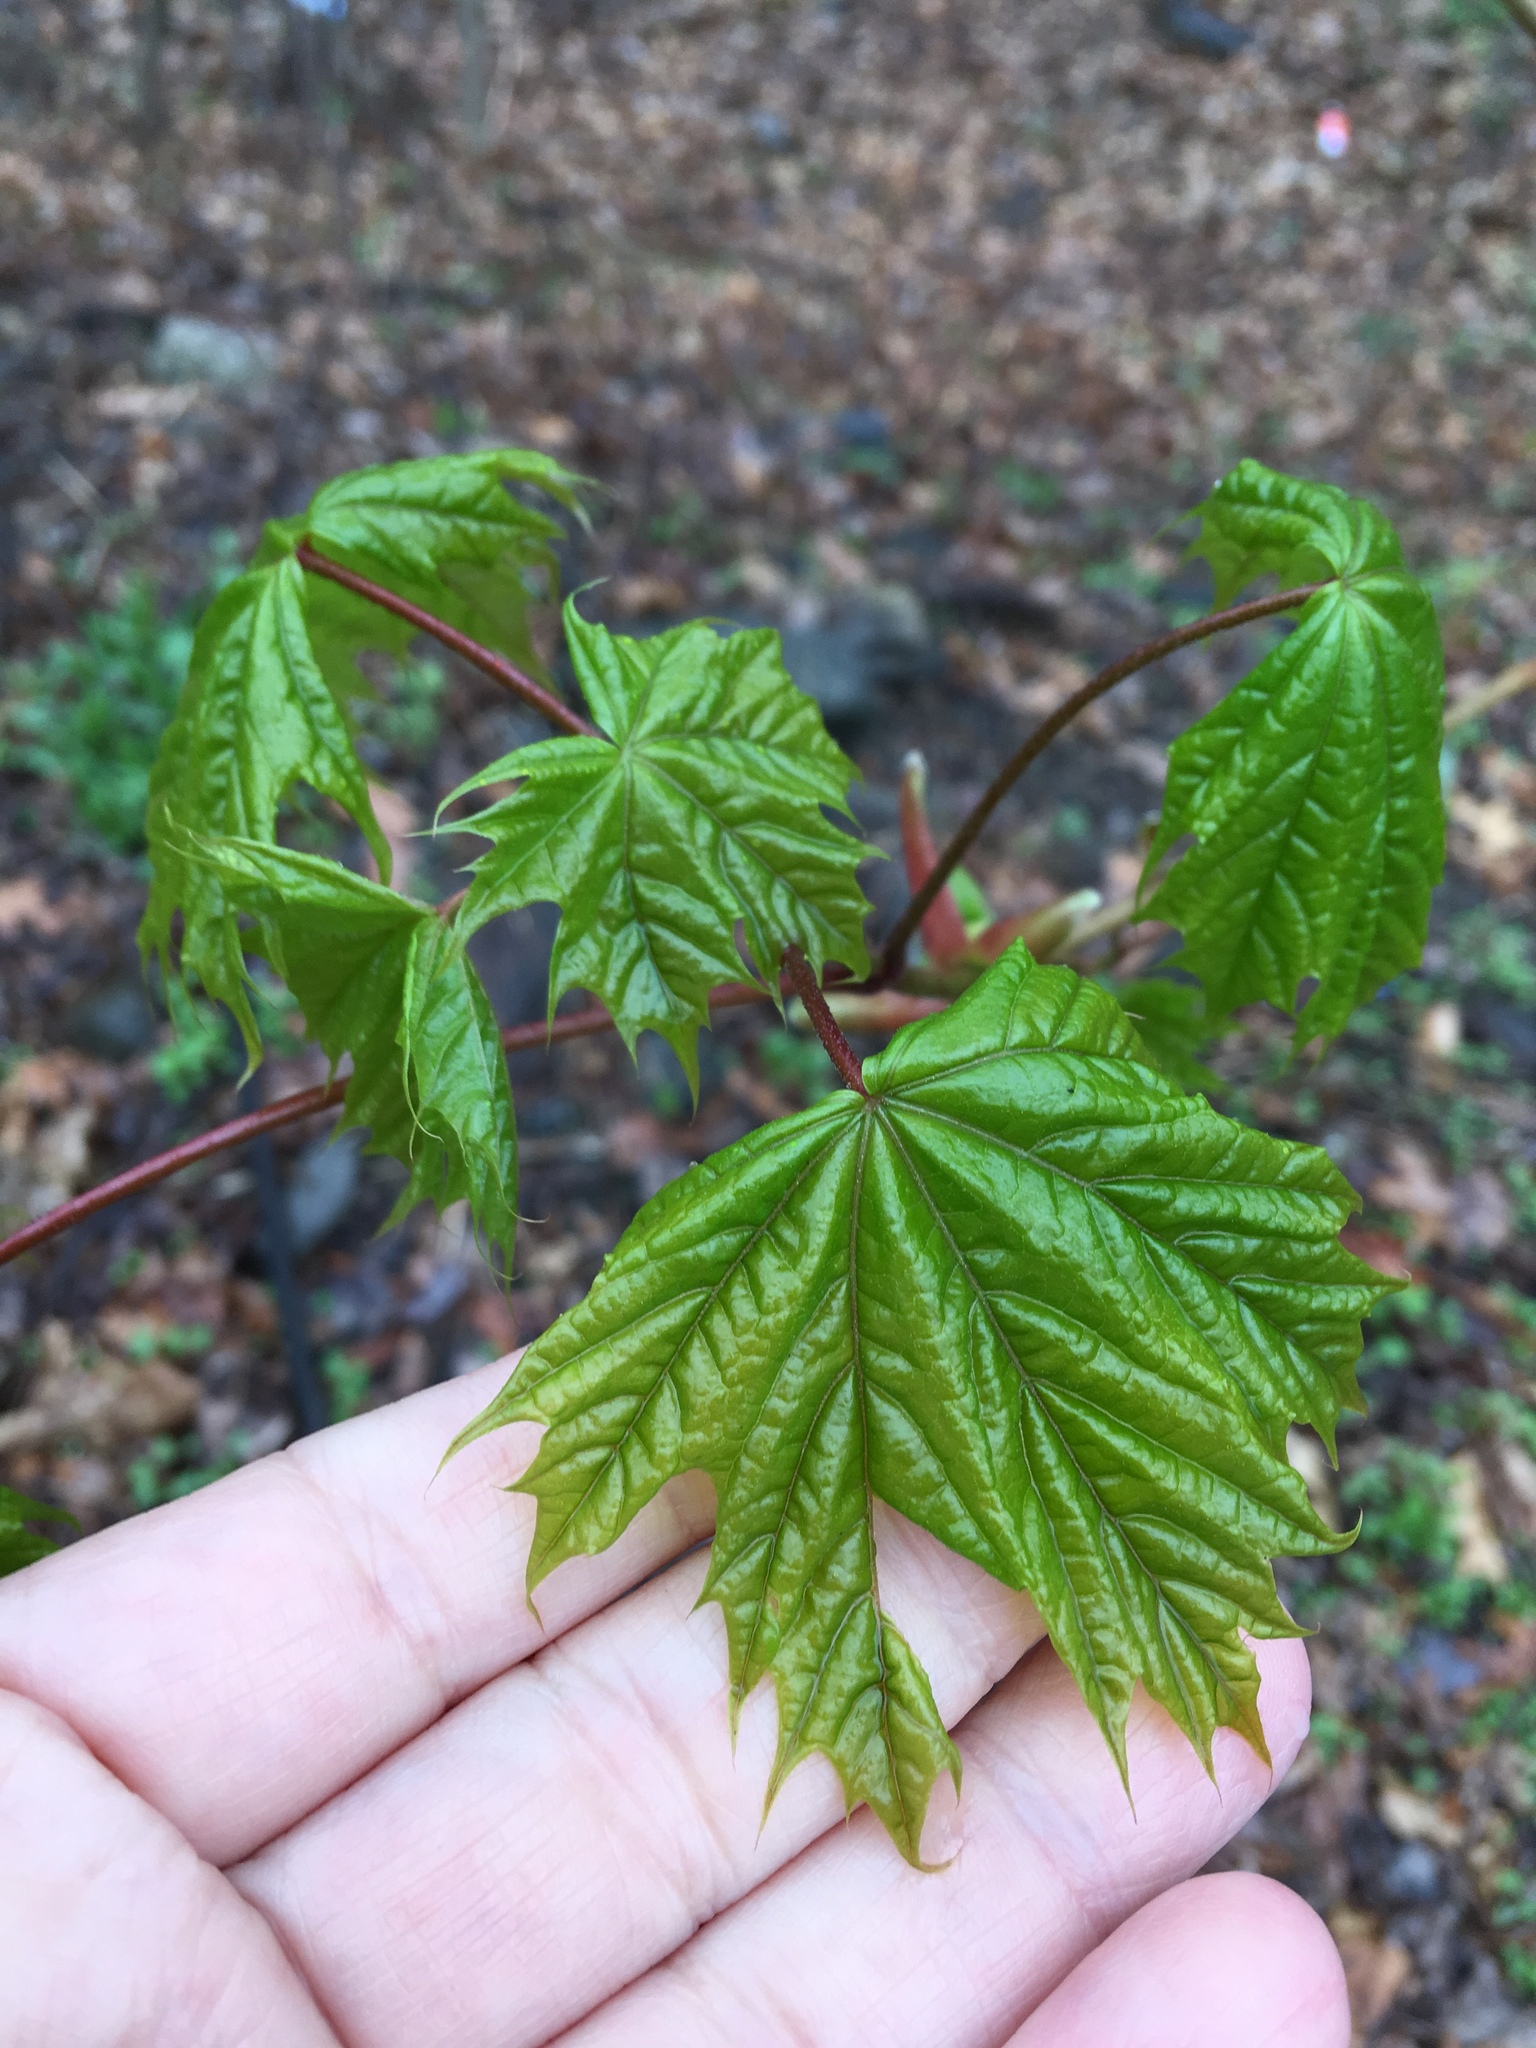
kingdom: Plantae
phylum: Tracheophyta
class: Magnoliopsida
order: Sapindales
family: Sapindaceae
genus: Acer
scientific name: Acer platanoides
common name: Norway maple
